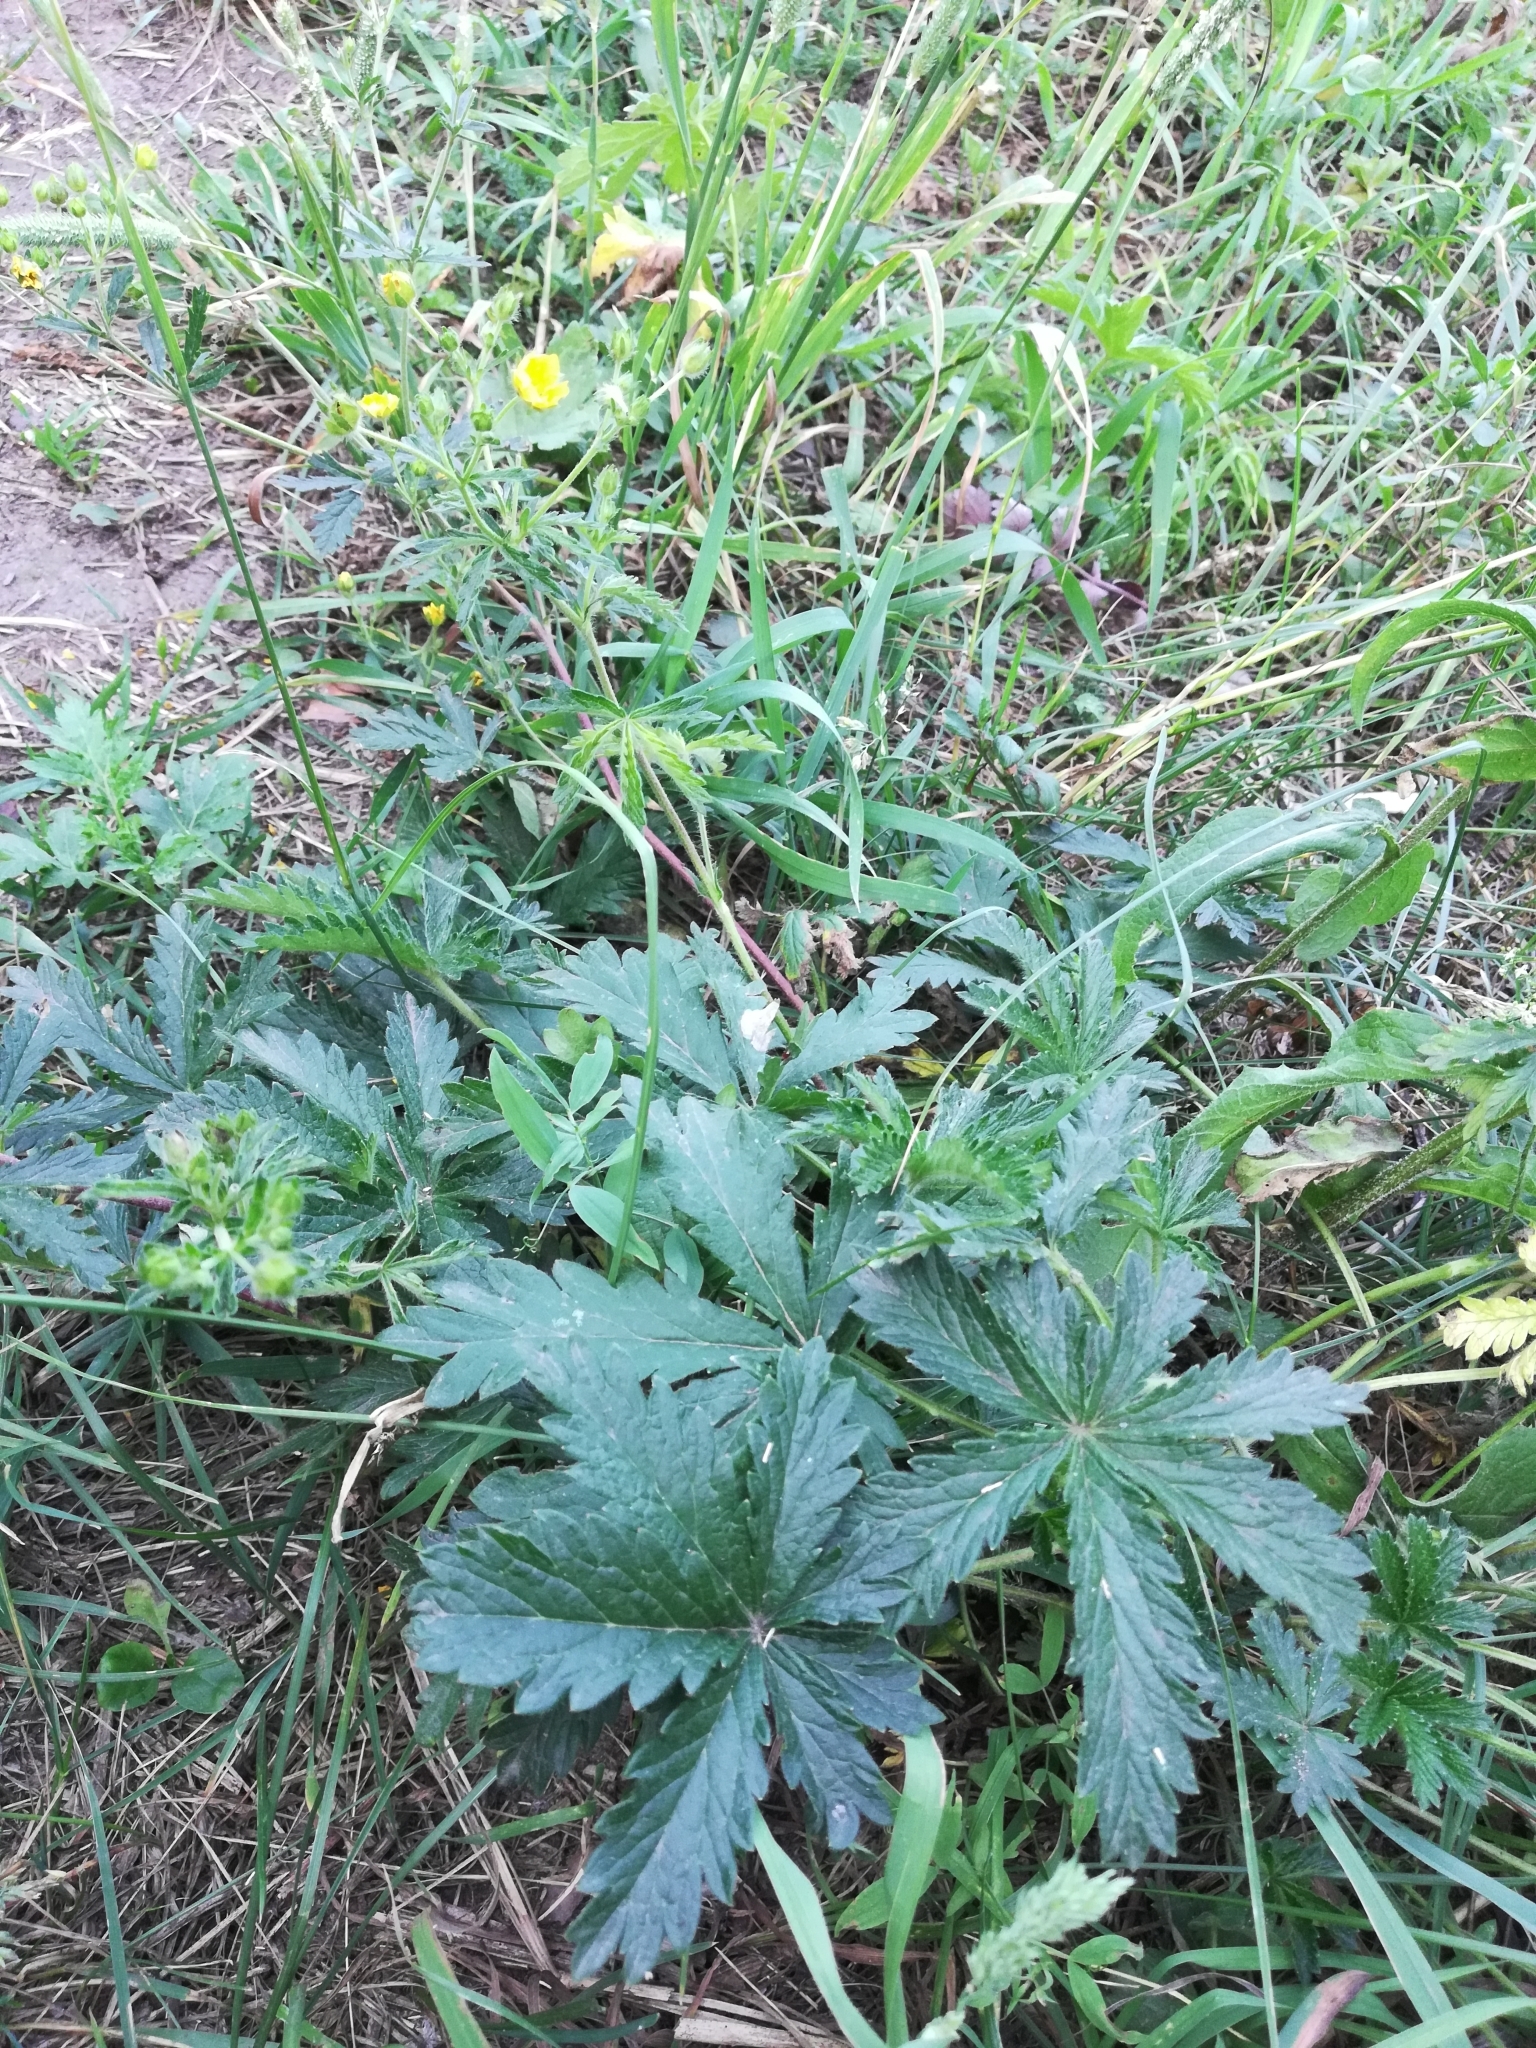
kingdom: Plantae
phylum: Tracheophyta
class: Magnoliopsida
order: Rosales
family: Rosaceae
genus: Potentilla
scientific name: Potentilla thuringiaca
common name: European cinquefoil
